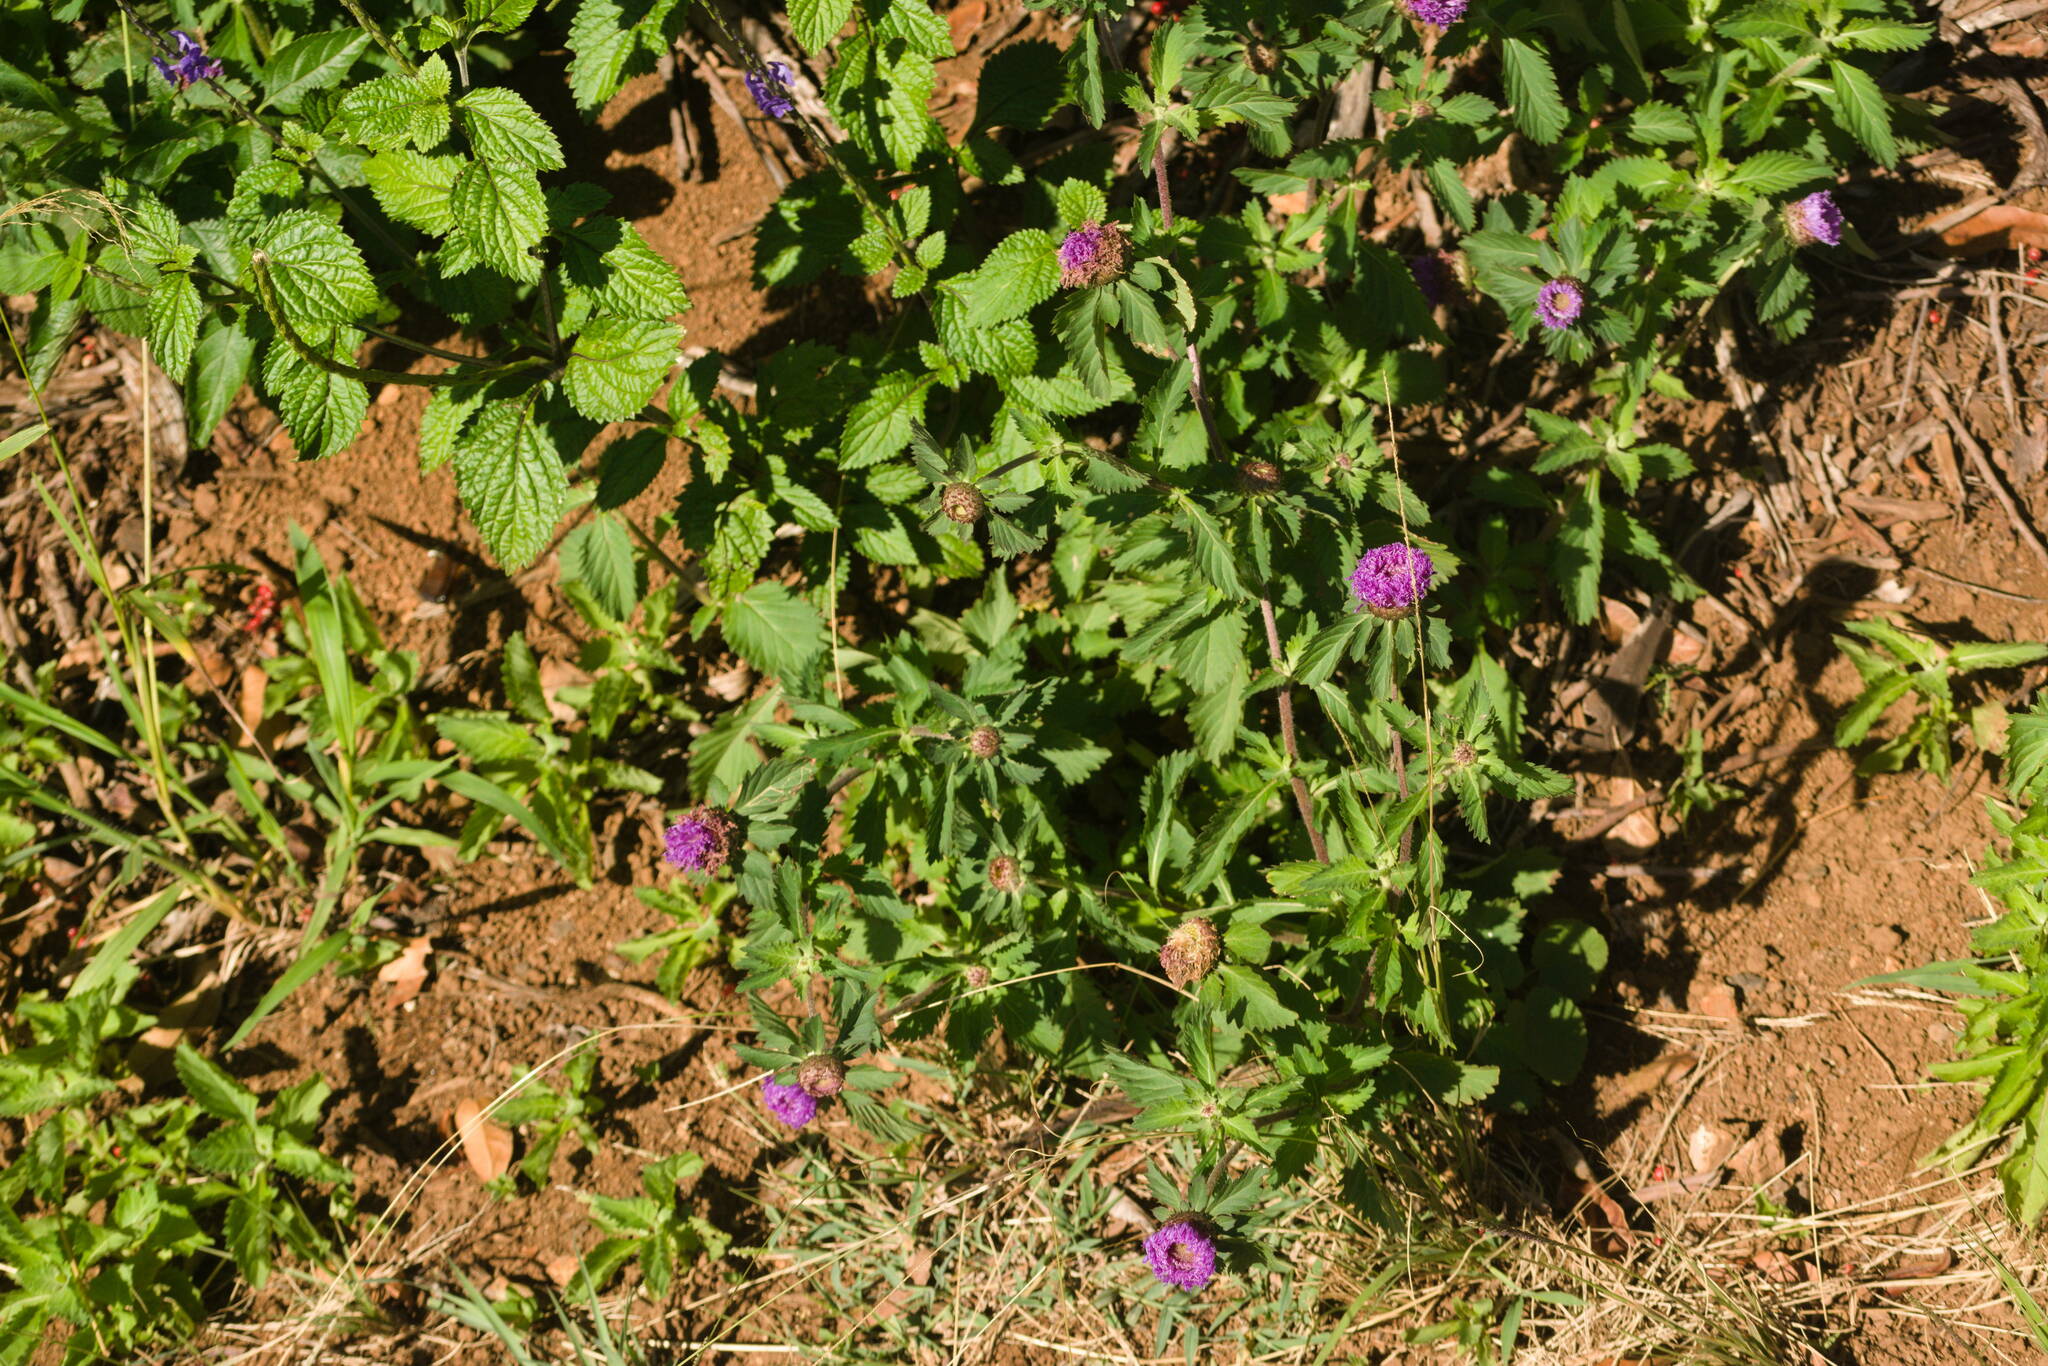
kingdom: Plantae
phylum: Tracheophyta
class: Magnoliopsida
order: Asterales
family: Asteraceae
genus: Centratherum
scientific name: Centratherum punctatum
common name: Larkdaisy
